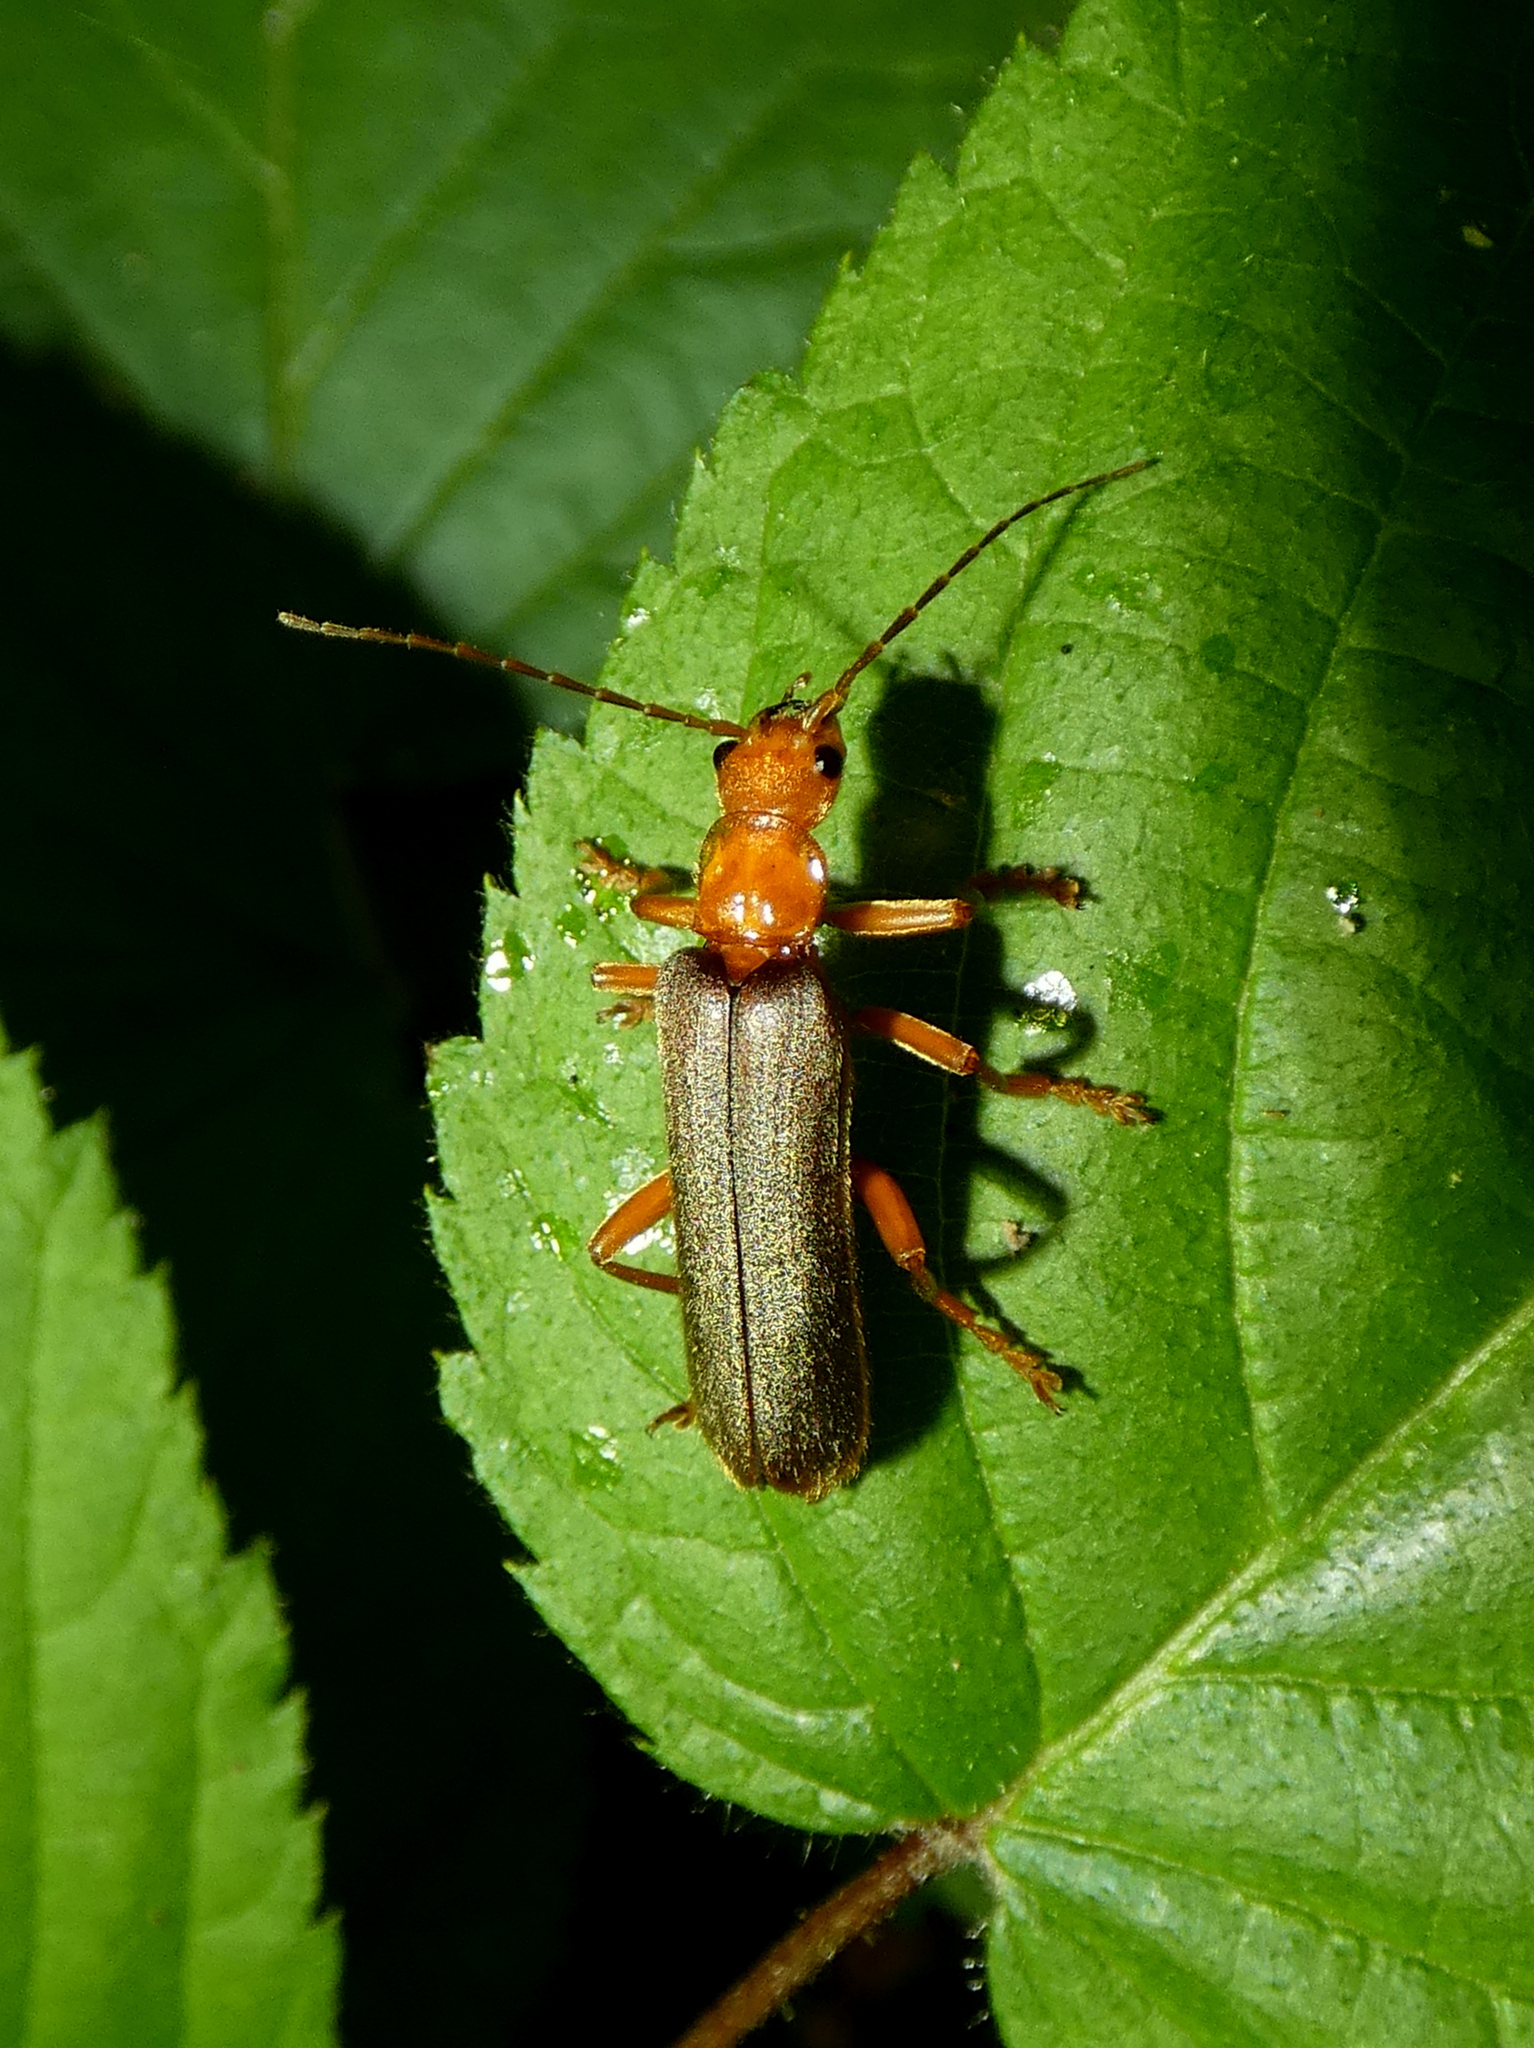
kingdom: Animalia
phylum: Arthropoda
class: Insecta
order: Coleoptera
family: Cantharidae
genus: Pacificanthia
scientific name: Pacificanthia rotundicollis
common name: Brown leatherwing beetle
